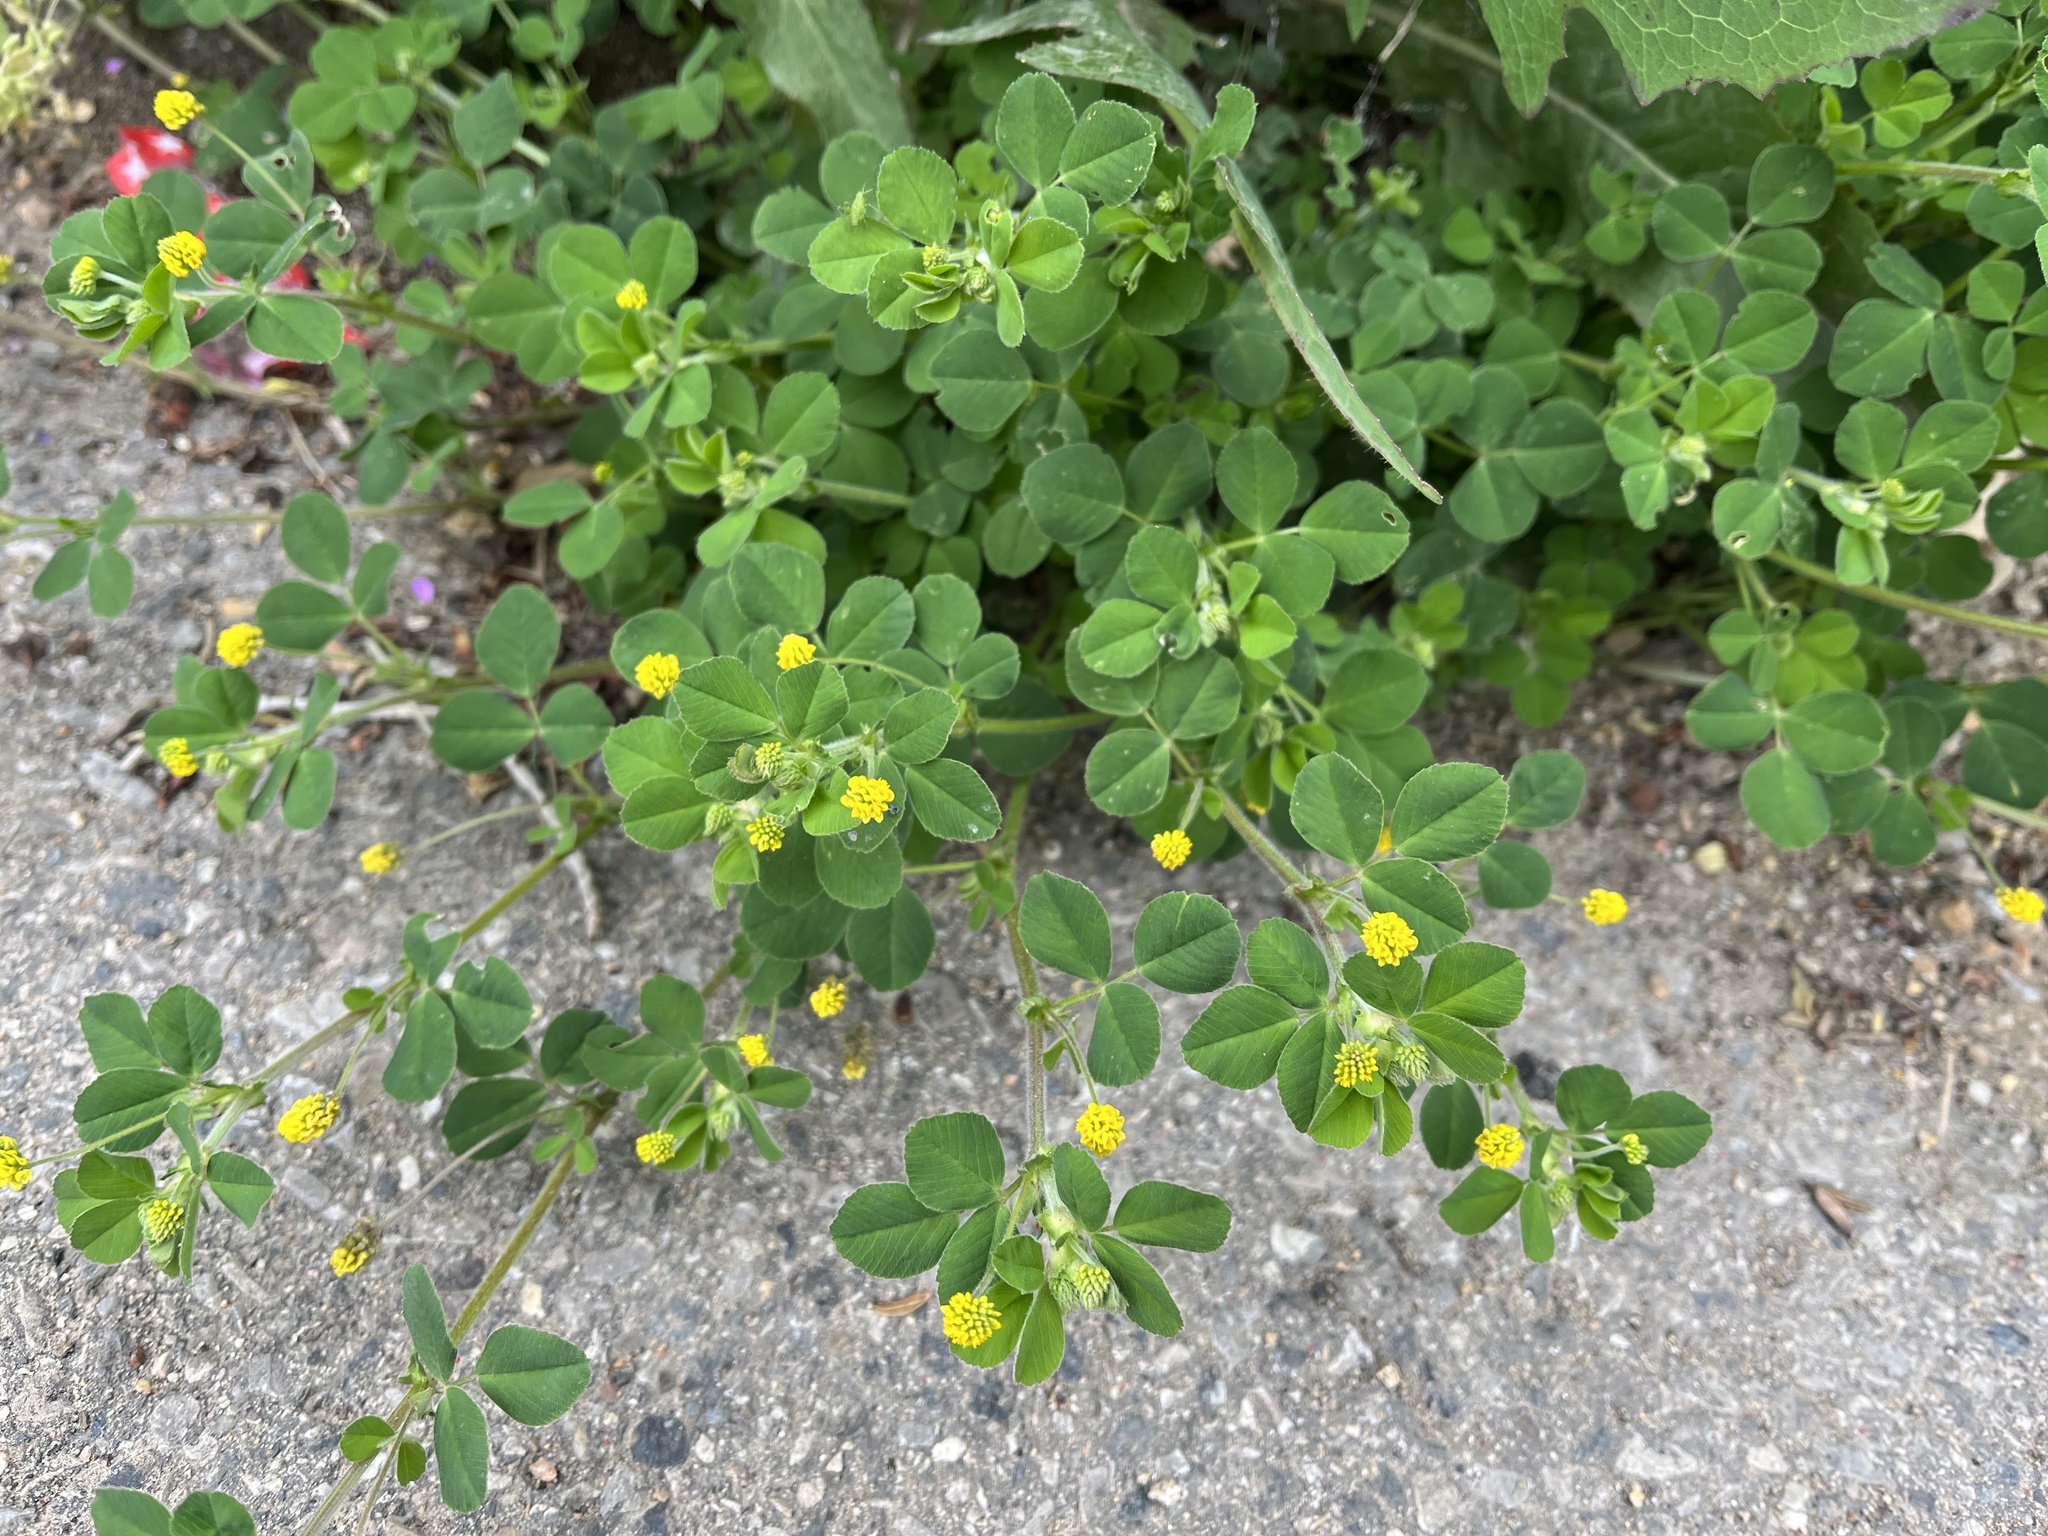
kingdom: Plantae
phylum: Tracheophyta
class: Magnoliopsida
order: Fabales
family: Fabaceae
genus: Medicago
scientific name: Medicago lupulina
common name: Black medick
